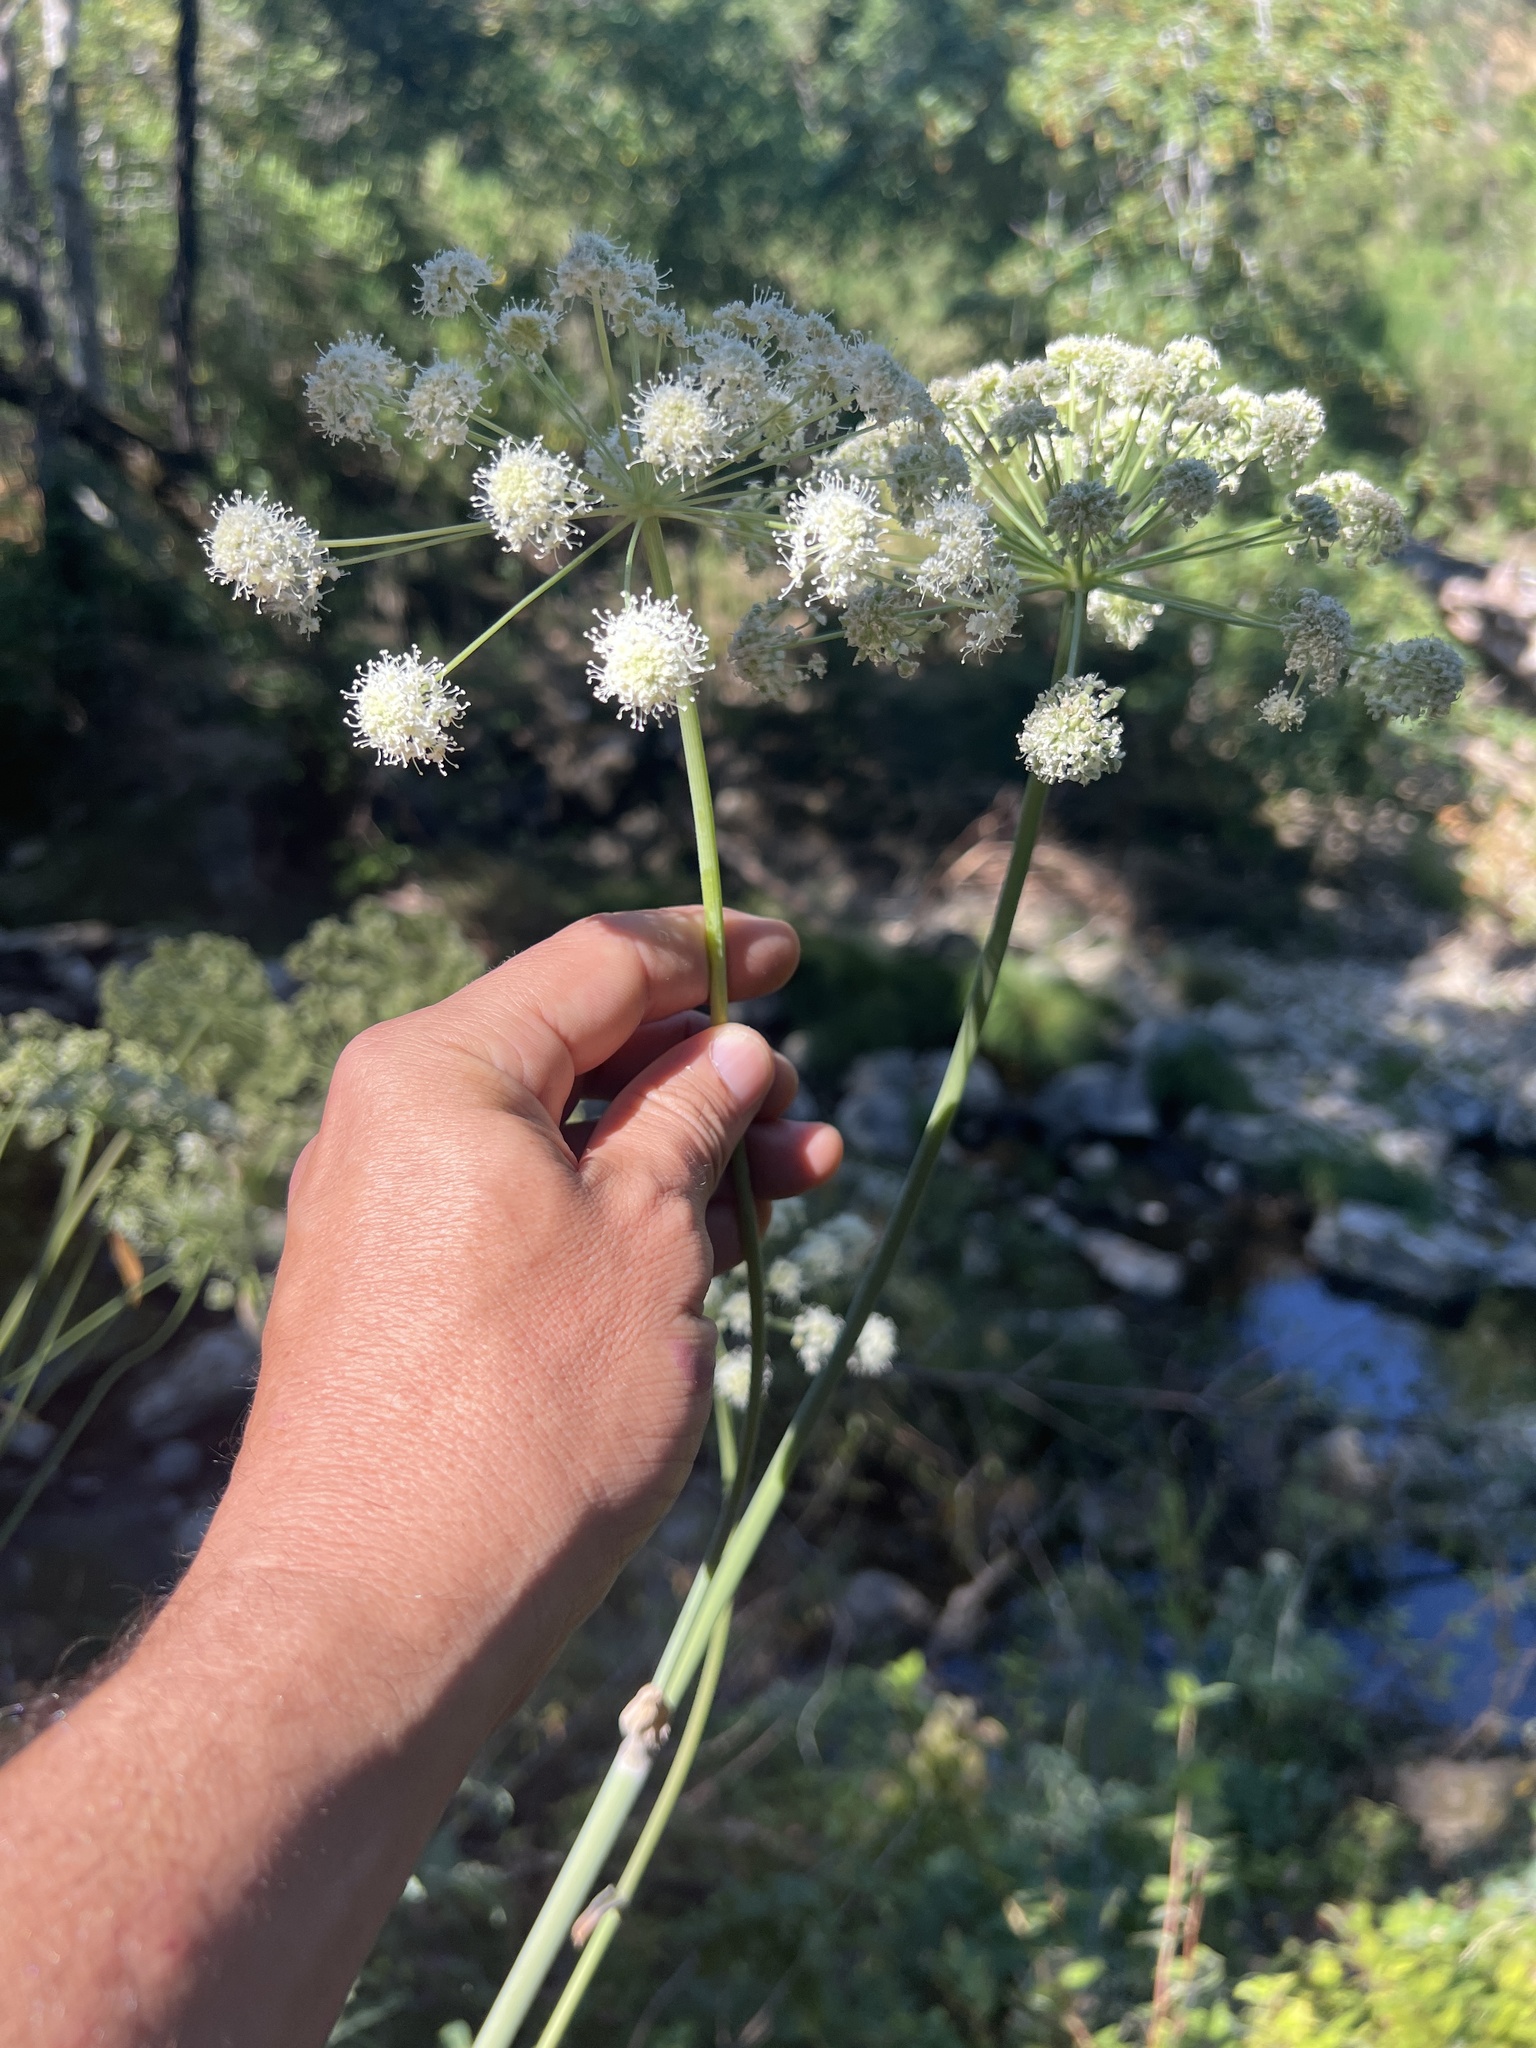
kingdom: Plantae
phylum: Tracheophyta
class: Magnoliopsida
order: Apiales
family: Apiaceae
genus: Angelica
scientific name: Angelica tomentosa
